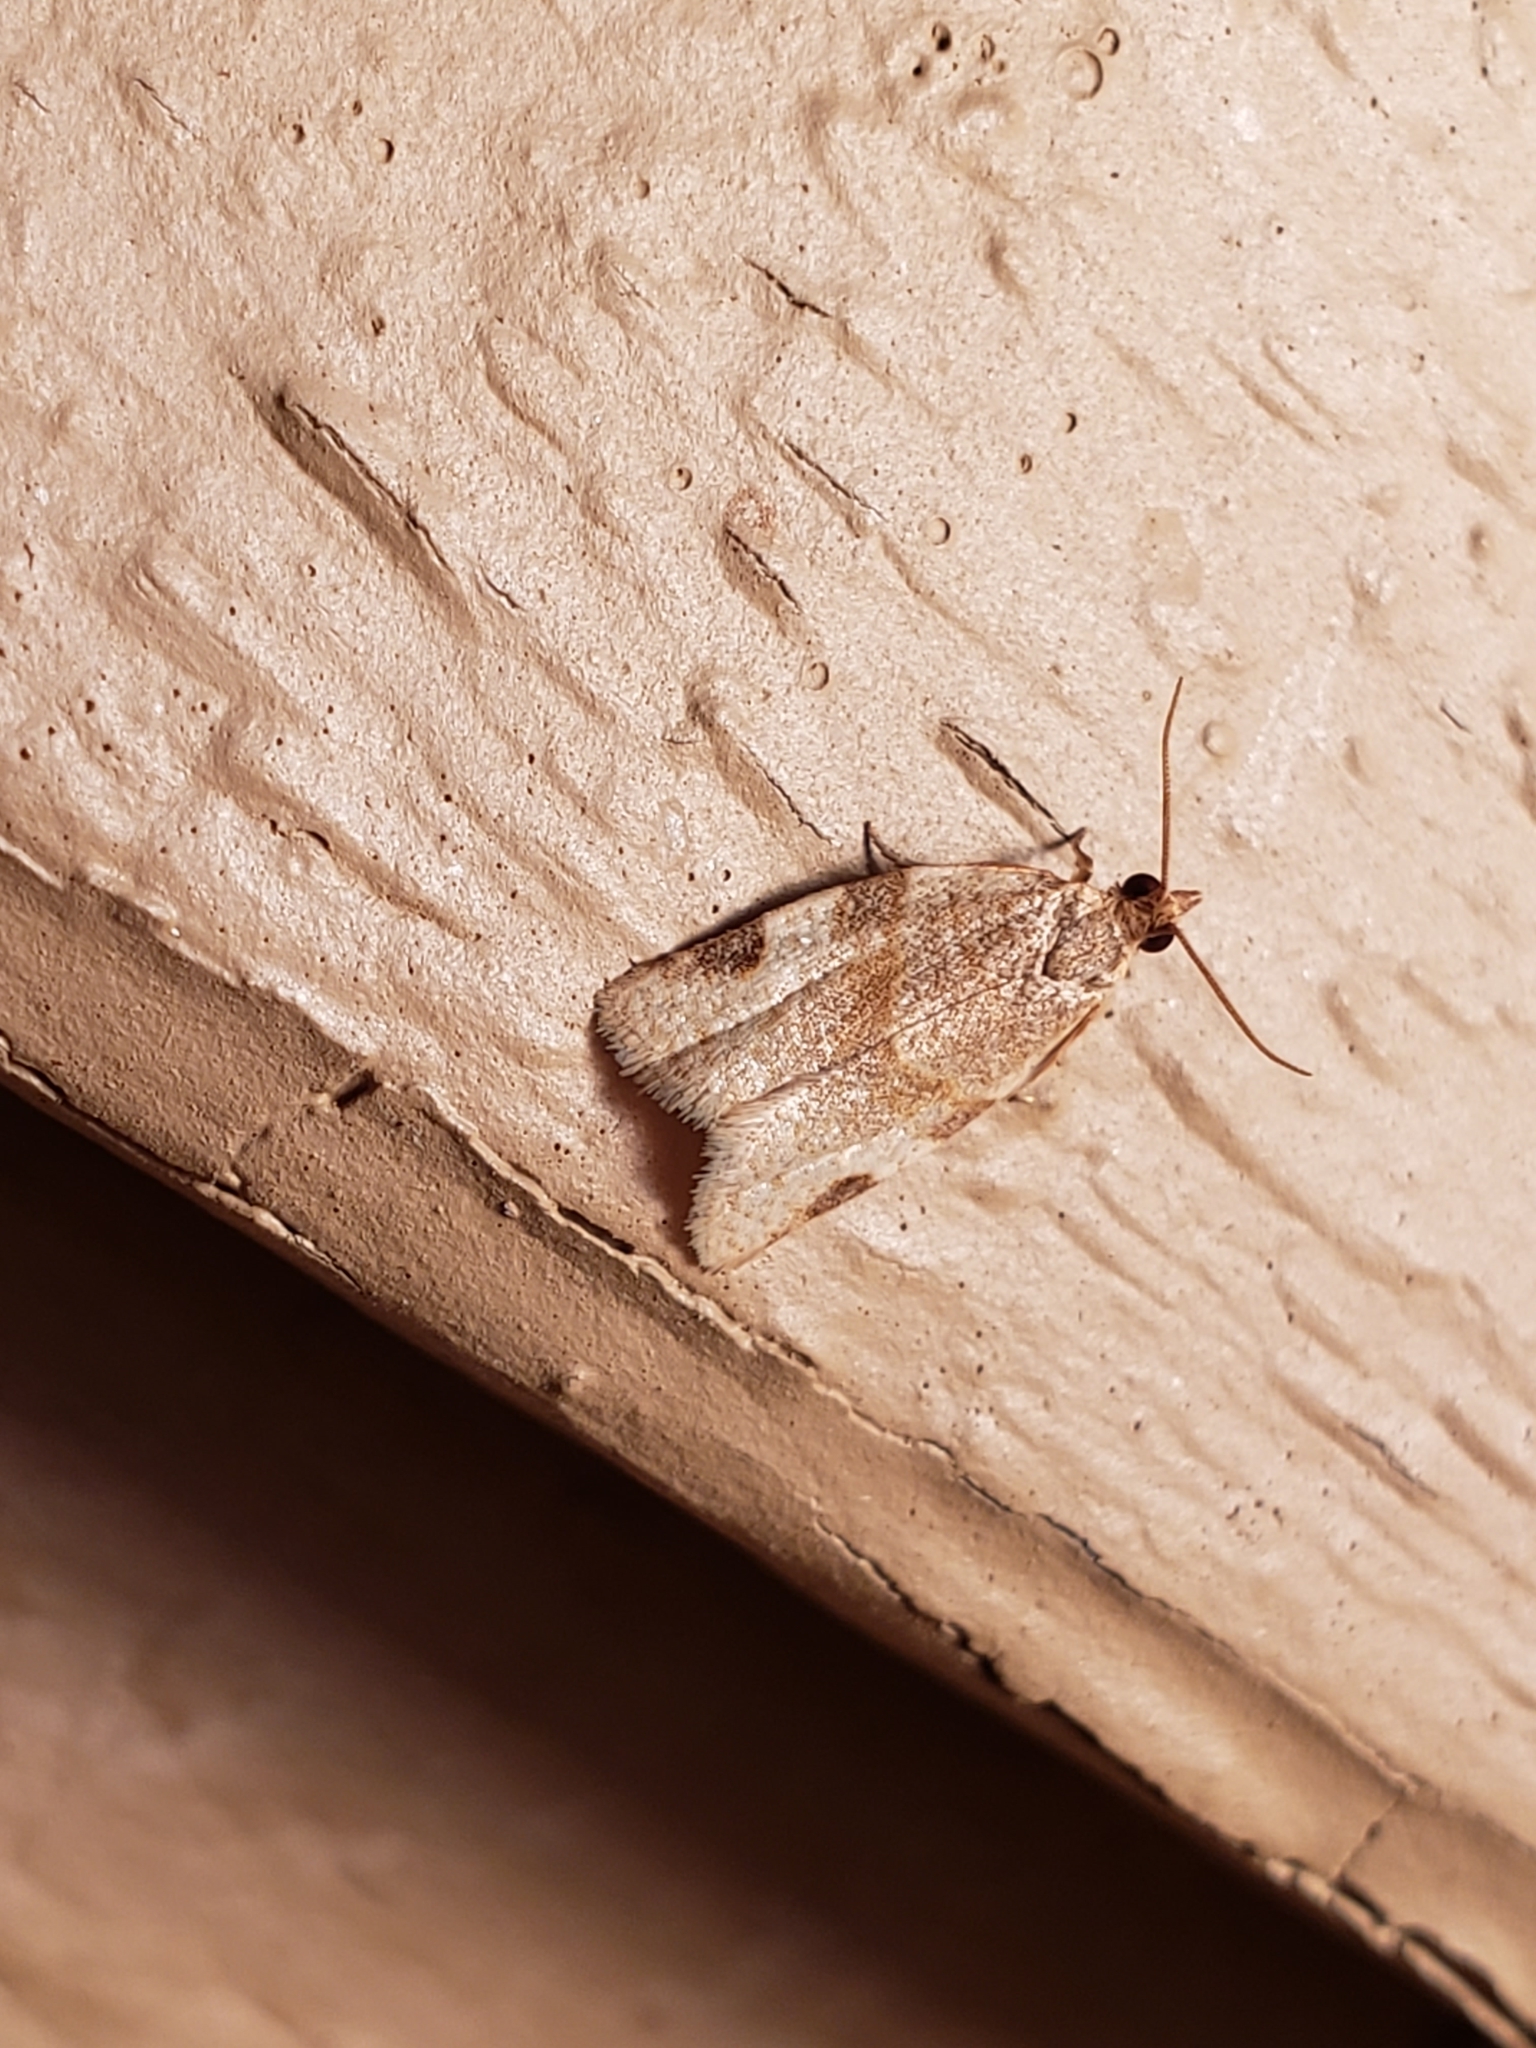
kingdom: Animalia
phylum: Arthropoda
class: Insecta
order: Lepidoptera
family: Tortricidae
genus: Clepsis
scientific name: Clepsis virescana
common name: Greenish apple moth
